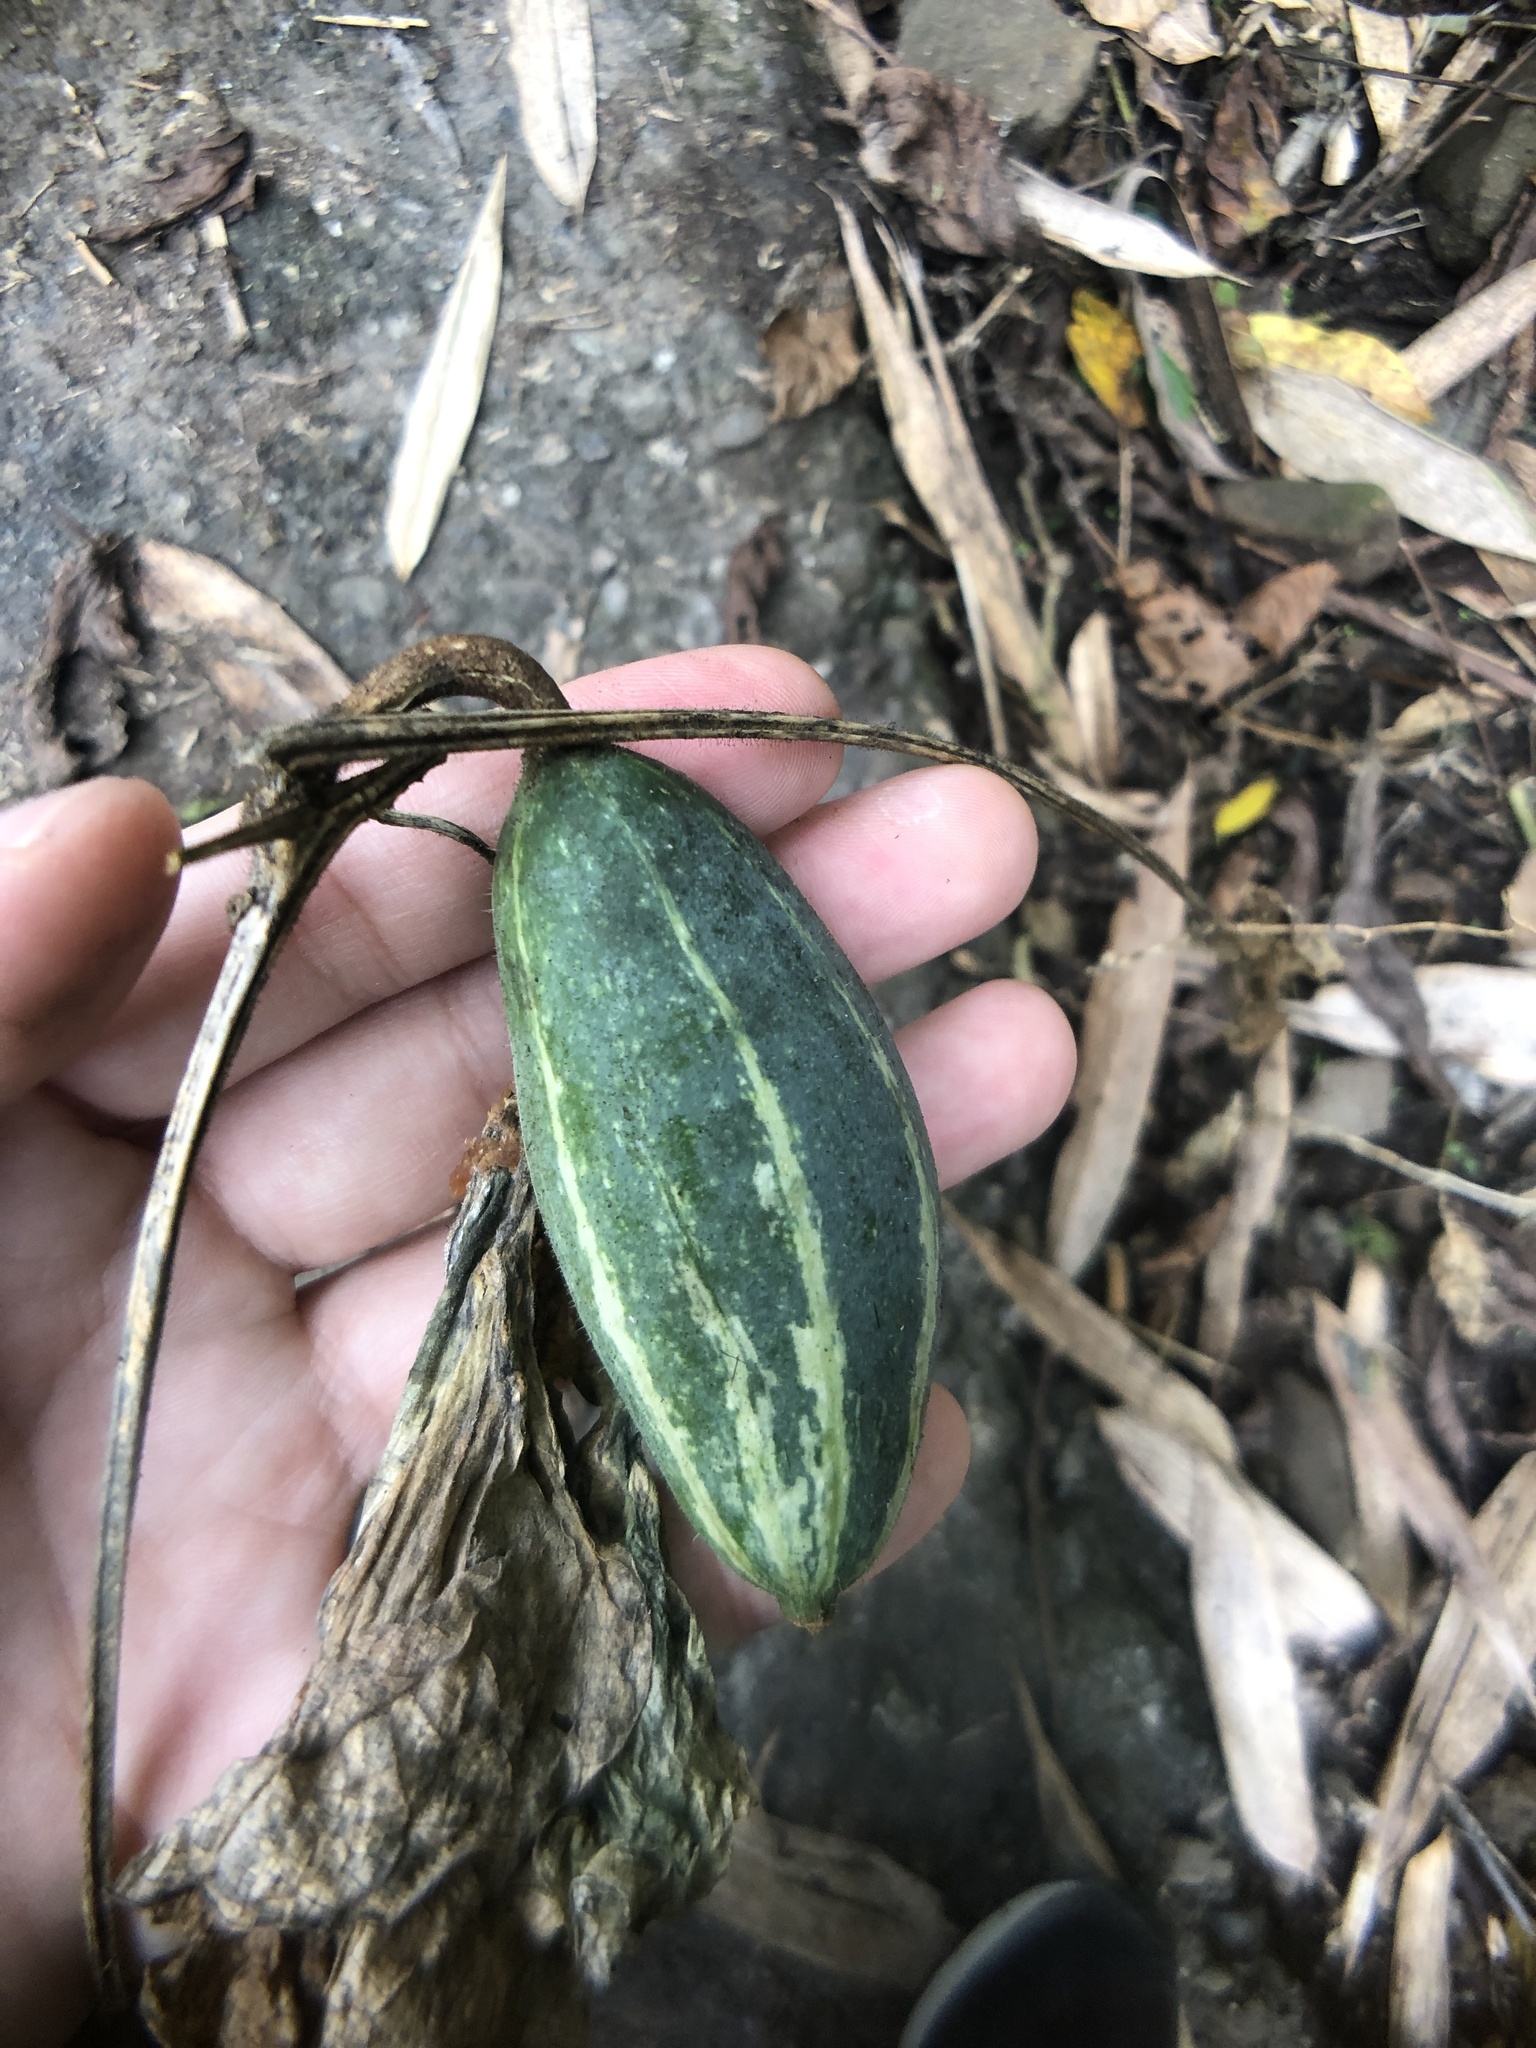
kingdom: Plantae
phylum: Tracheophyta
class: Magnoliopsida
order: Cucurbitales
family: Cucurbitaceae
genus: Trichosanthes
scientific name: Trichosanthes cucumeroides
